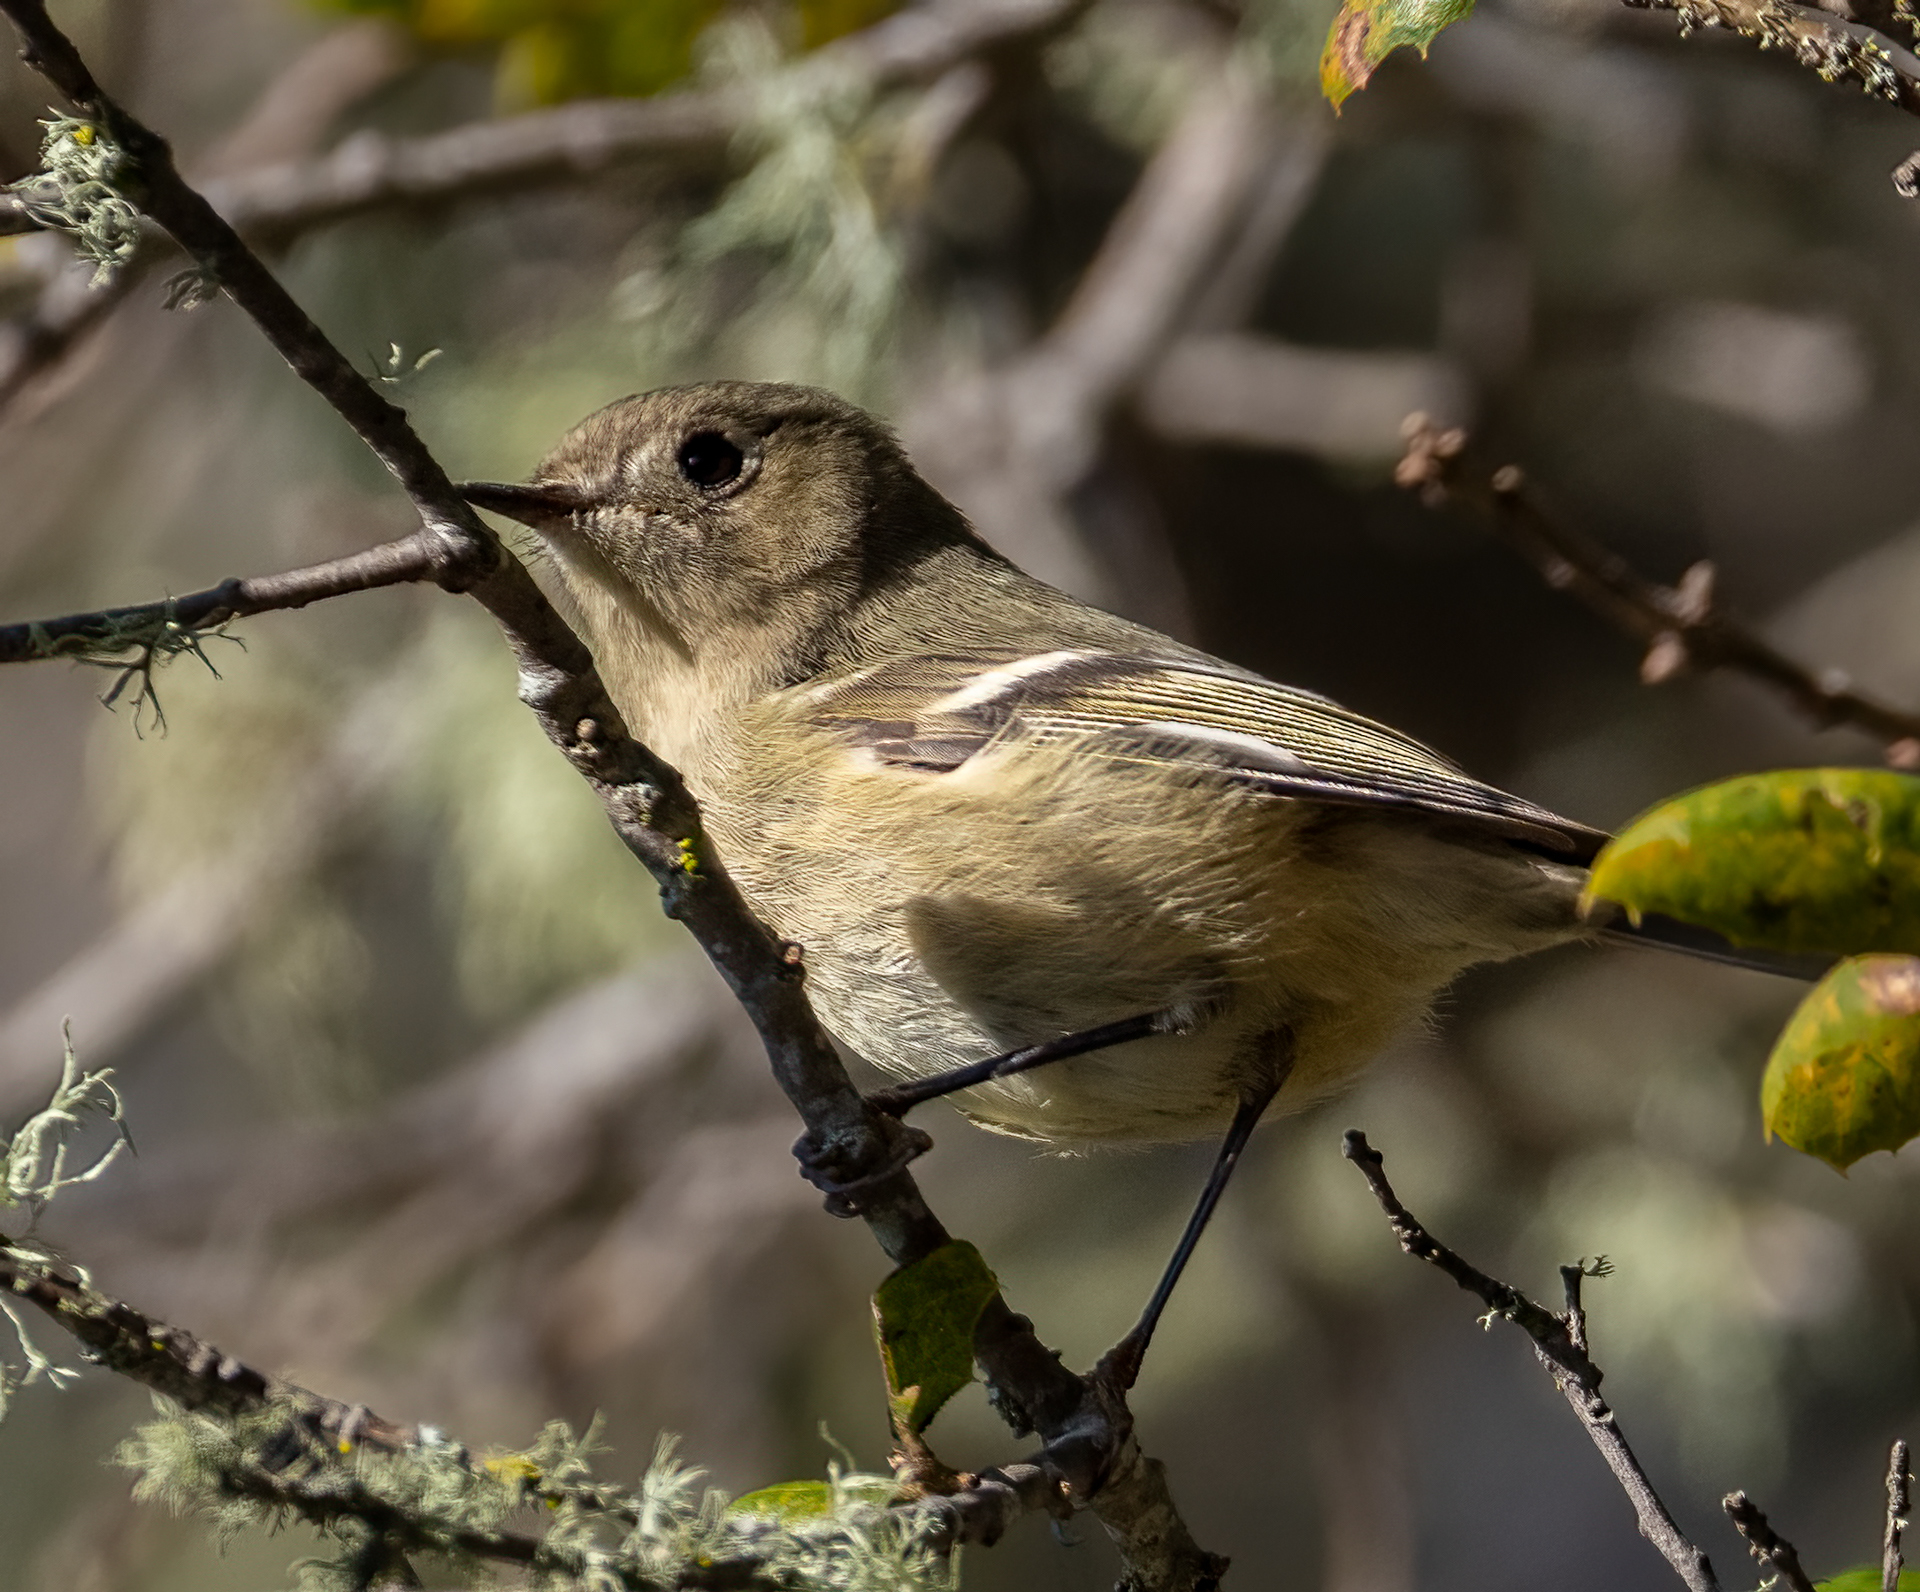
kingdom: Animalia
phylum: Chordata
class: Aves
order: Passeriformes
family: Vireonidae
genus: Vireo
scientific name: Vireo huttoni
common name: Hutton's vireo
